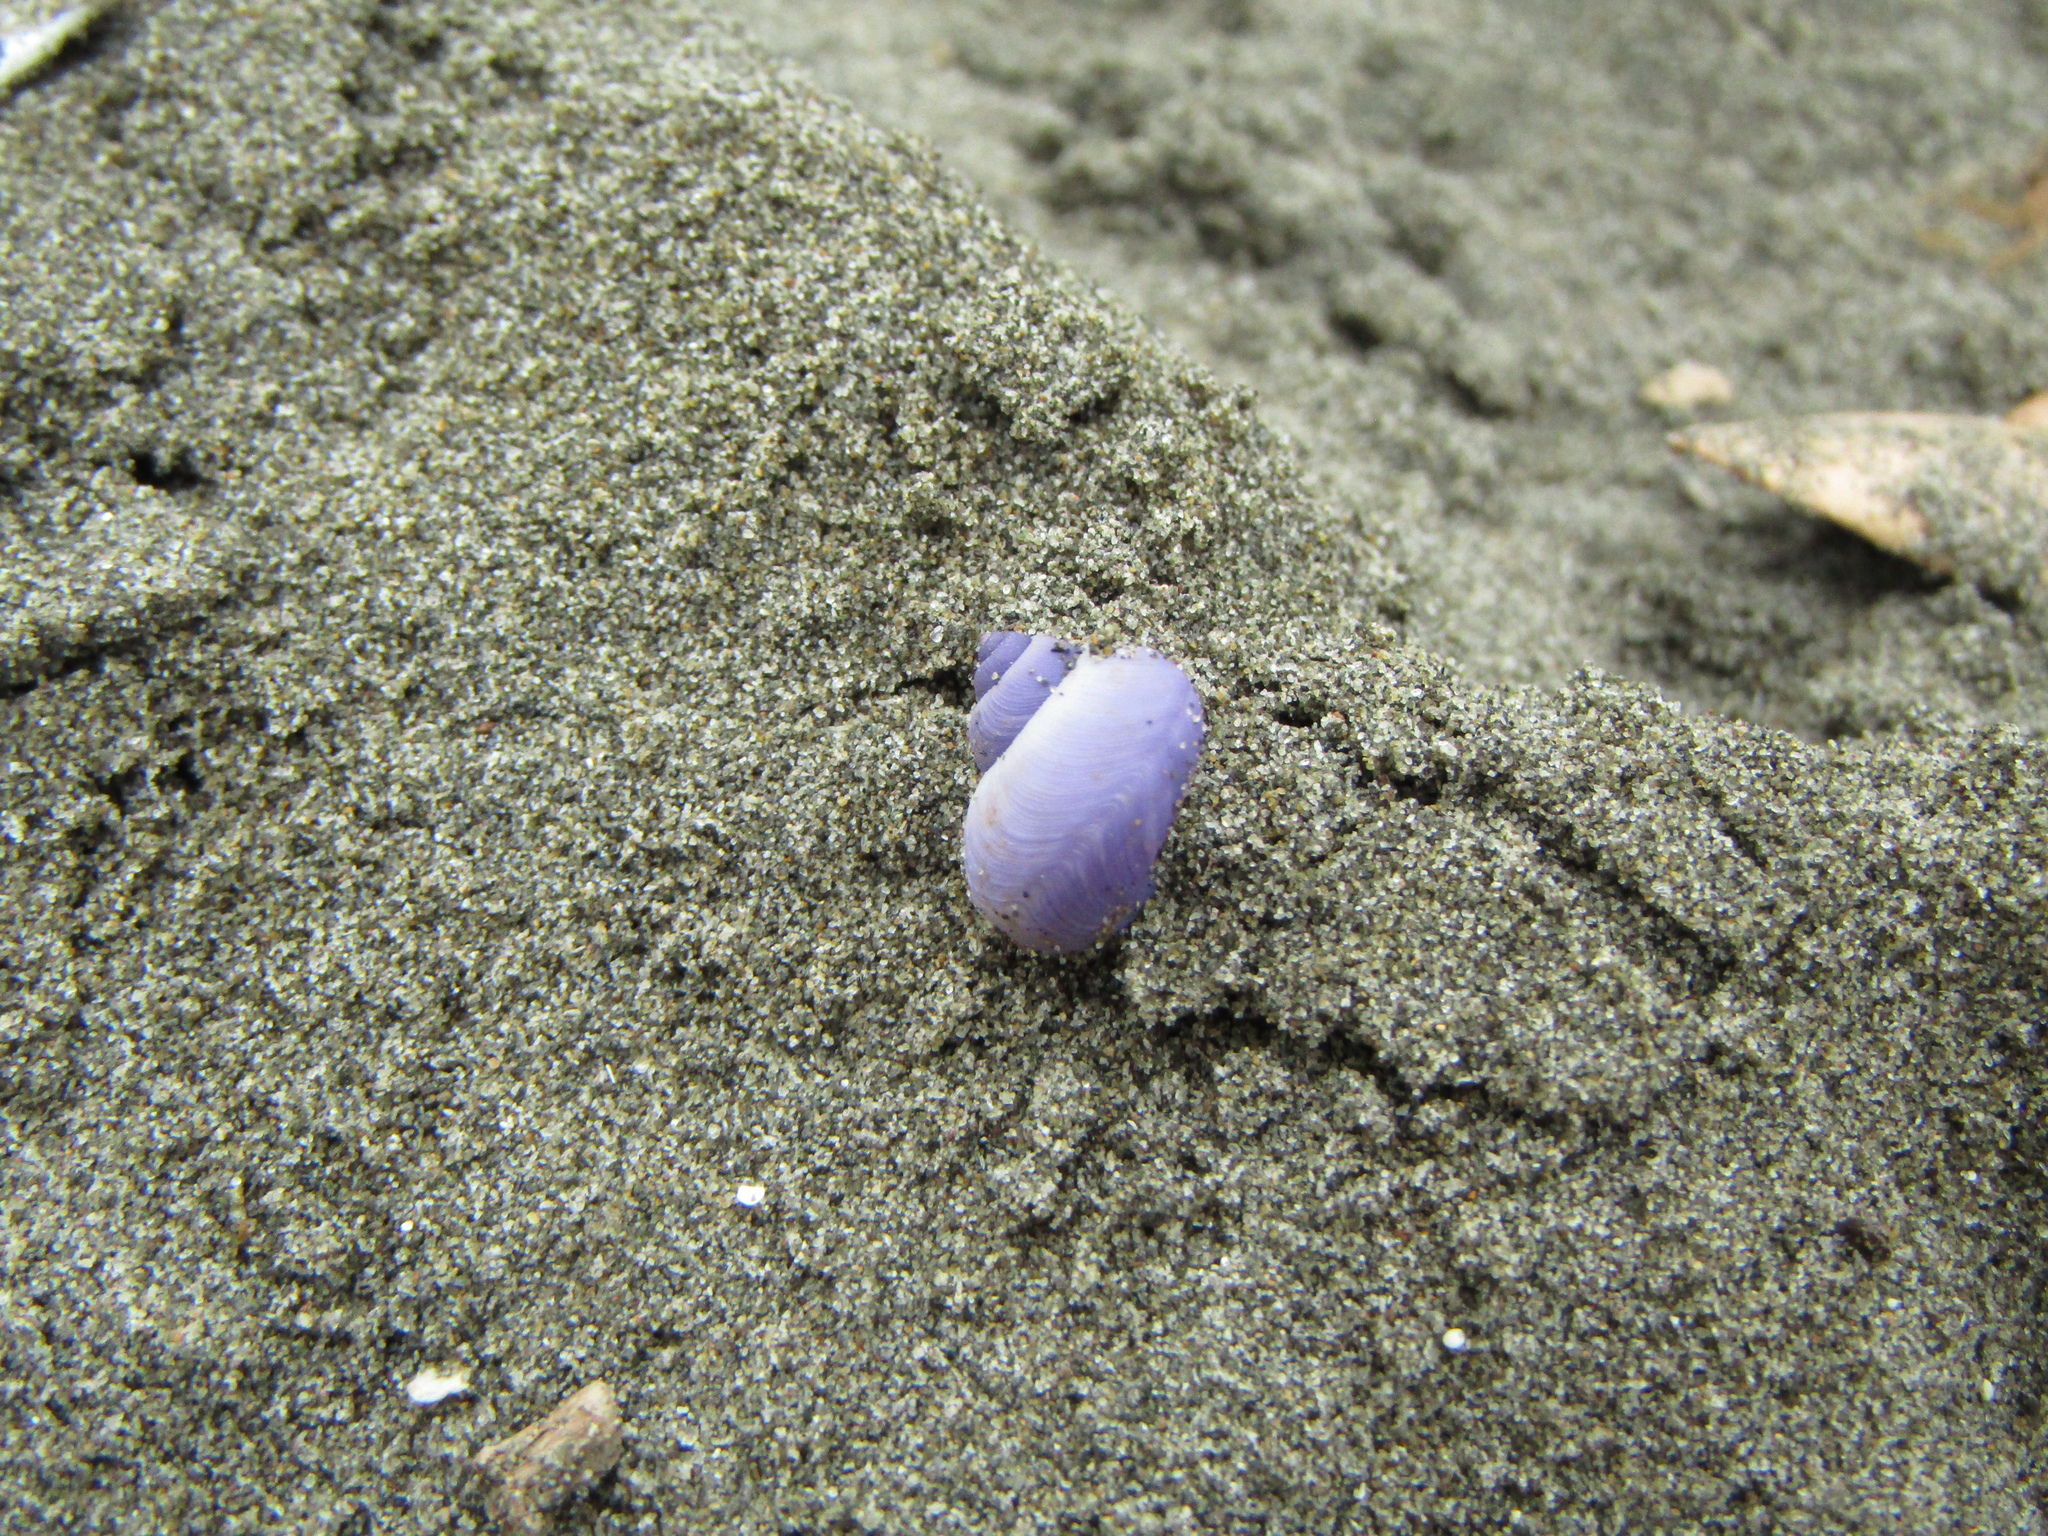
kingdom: Animalia
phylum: Mollusca
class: Gastropoda
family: Epitoniidae
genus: Janthina
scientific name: Janthina exigua
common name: Dwarf janthina
